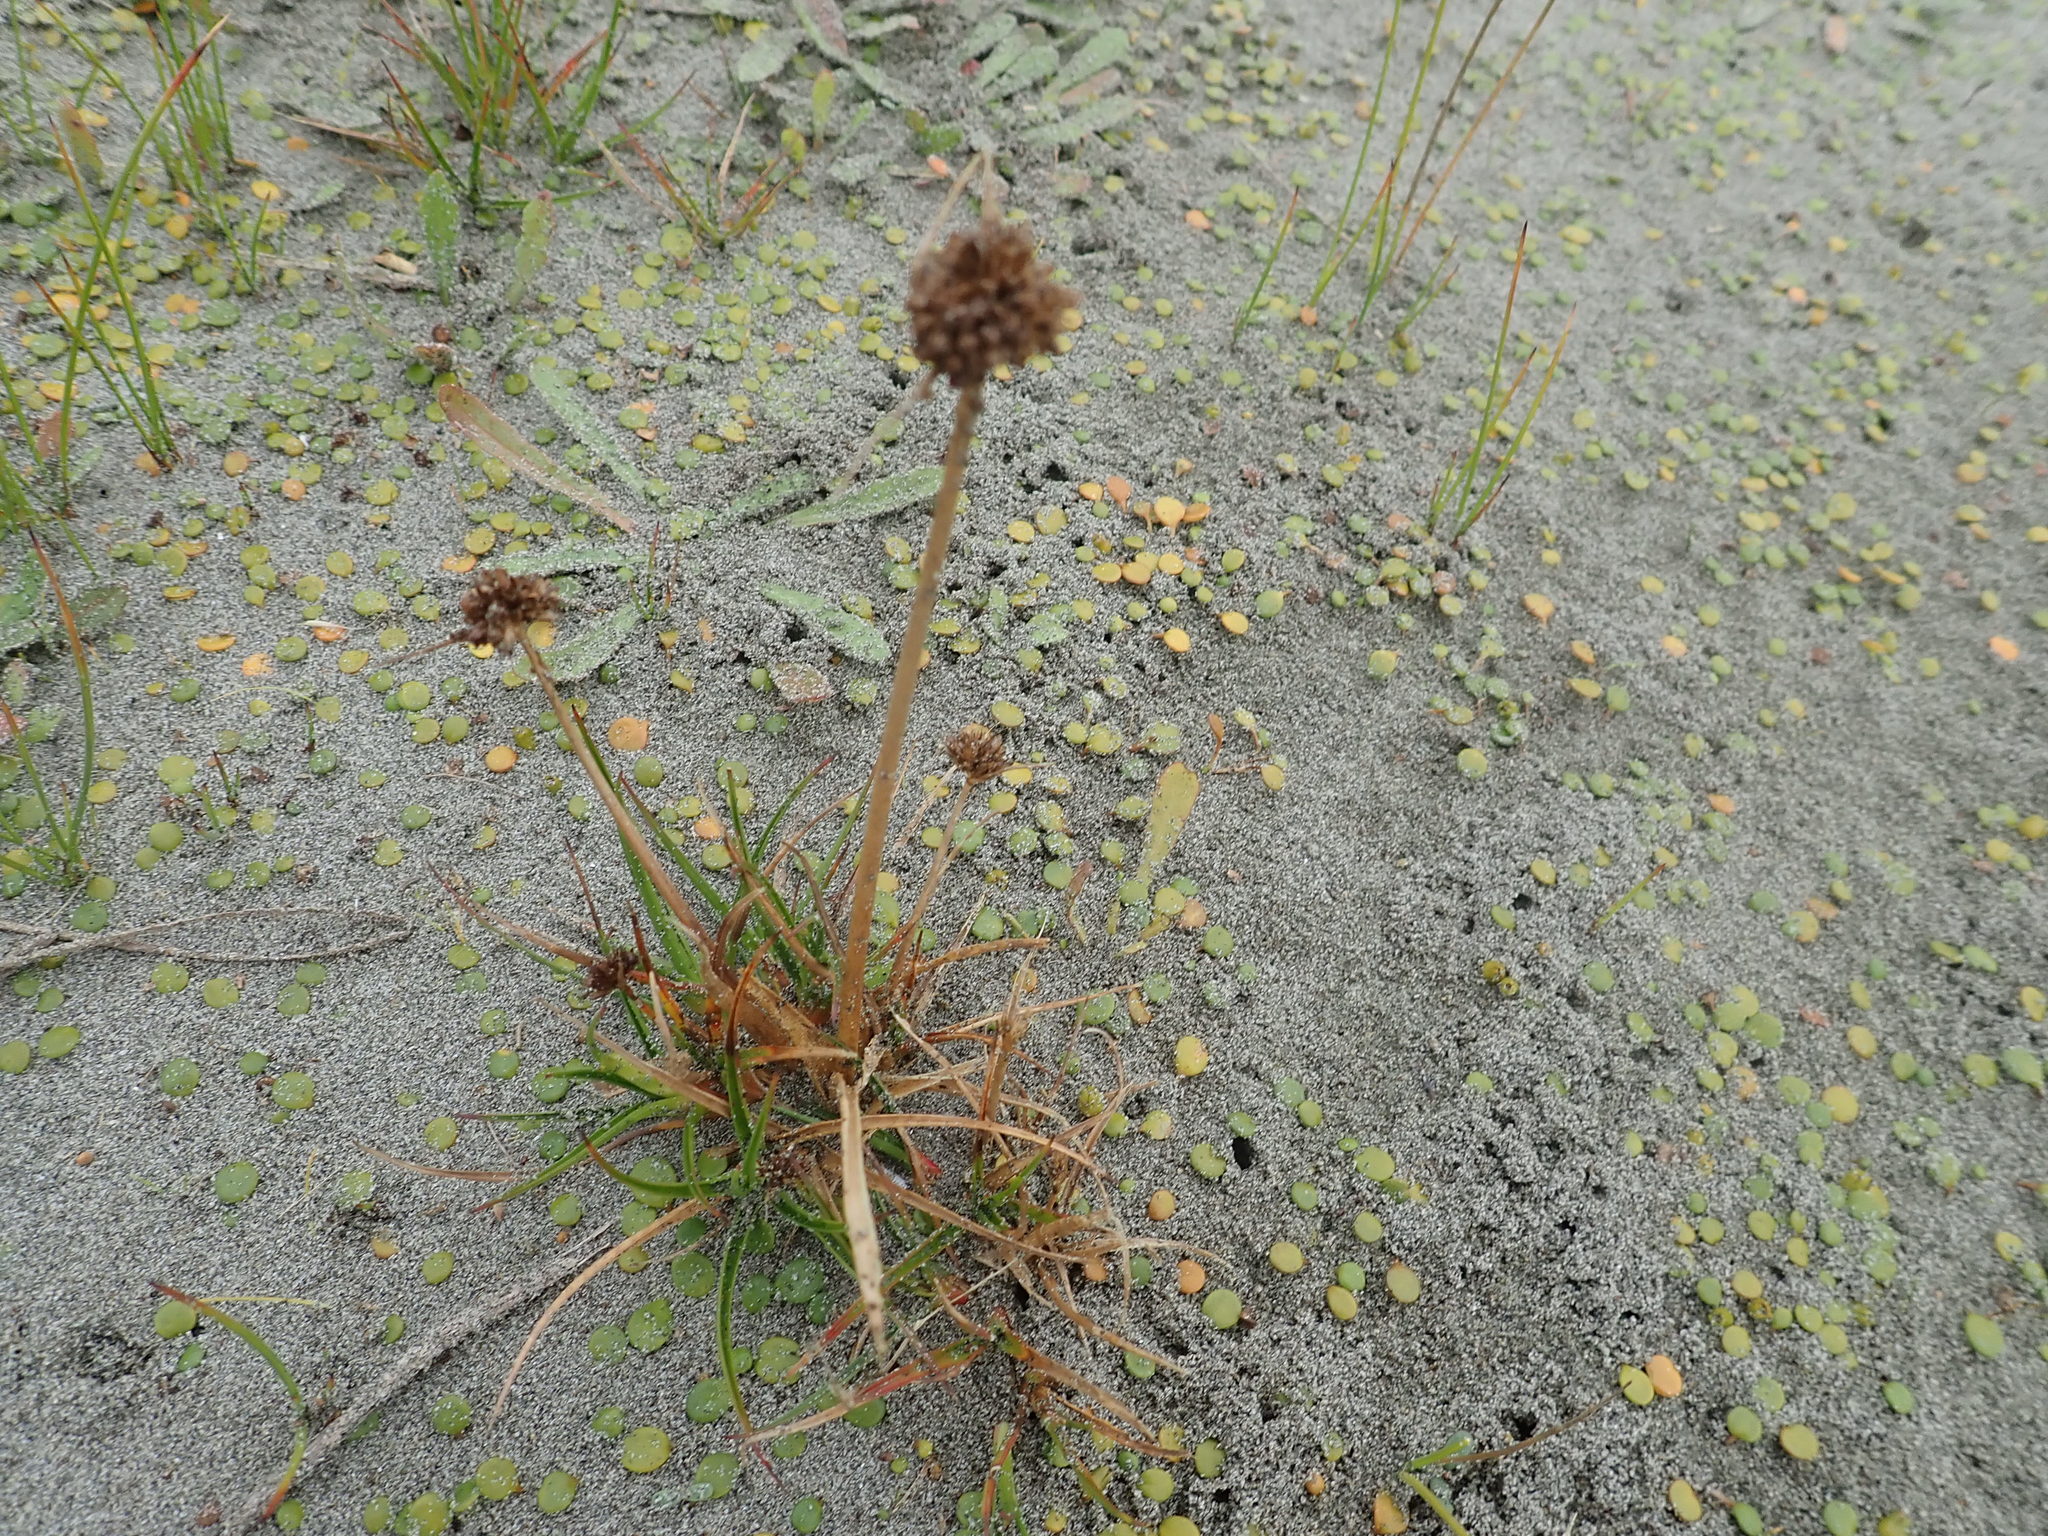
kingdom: Plantae
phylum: Tracheophyta
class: Liliopsida
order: Poales
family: Juncaceae
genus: Juncus
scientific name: Juncus caespiticius
